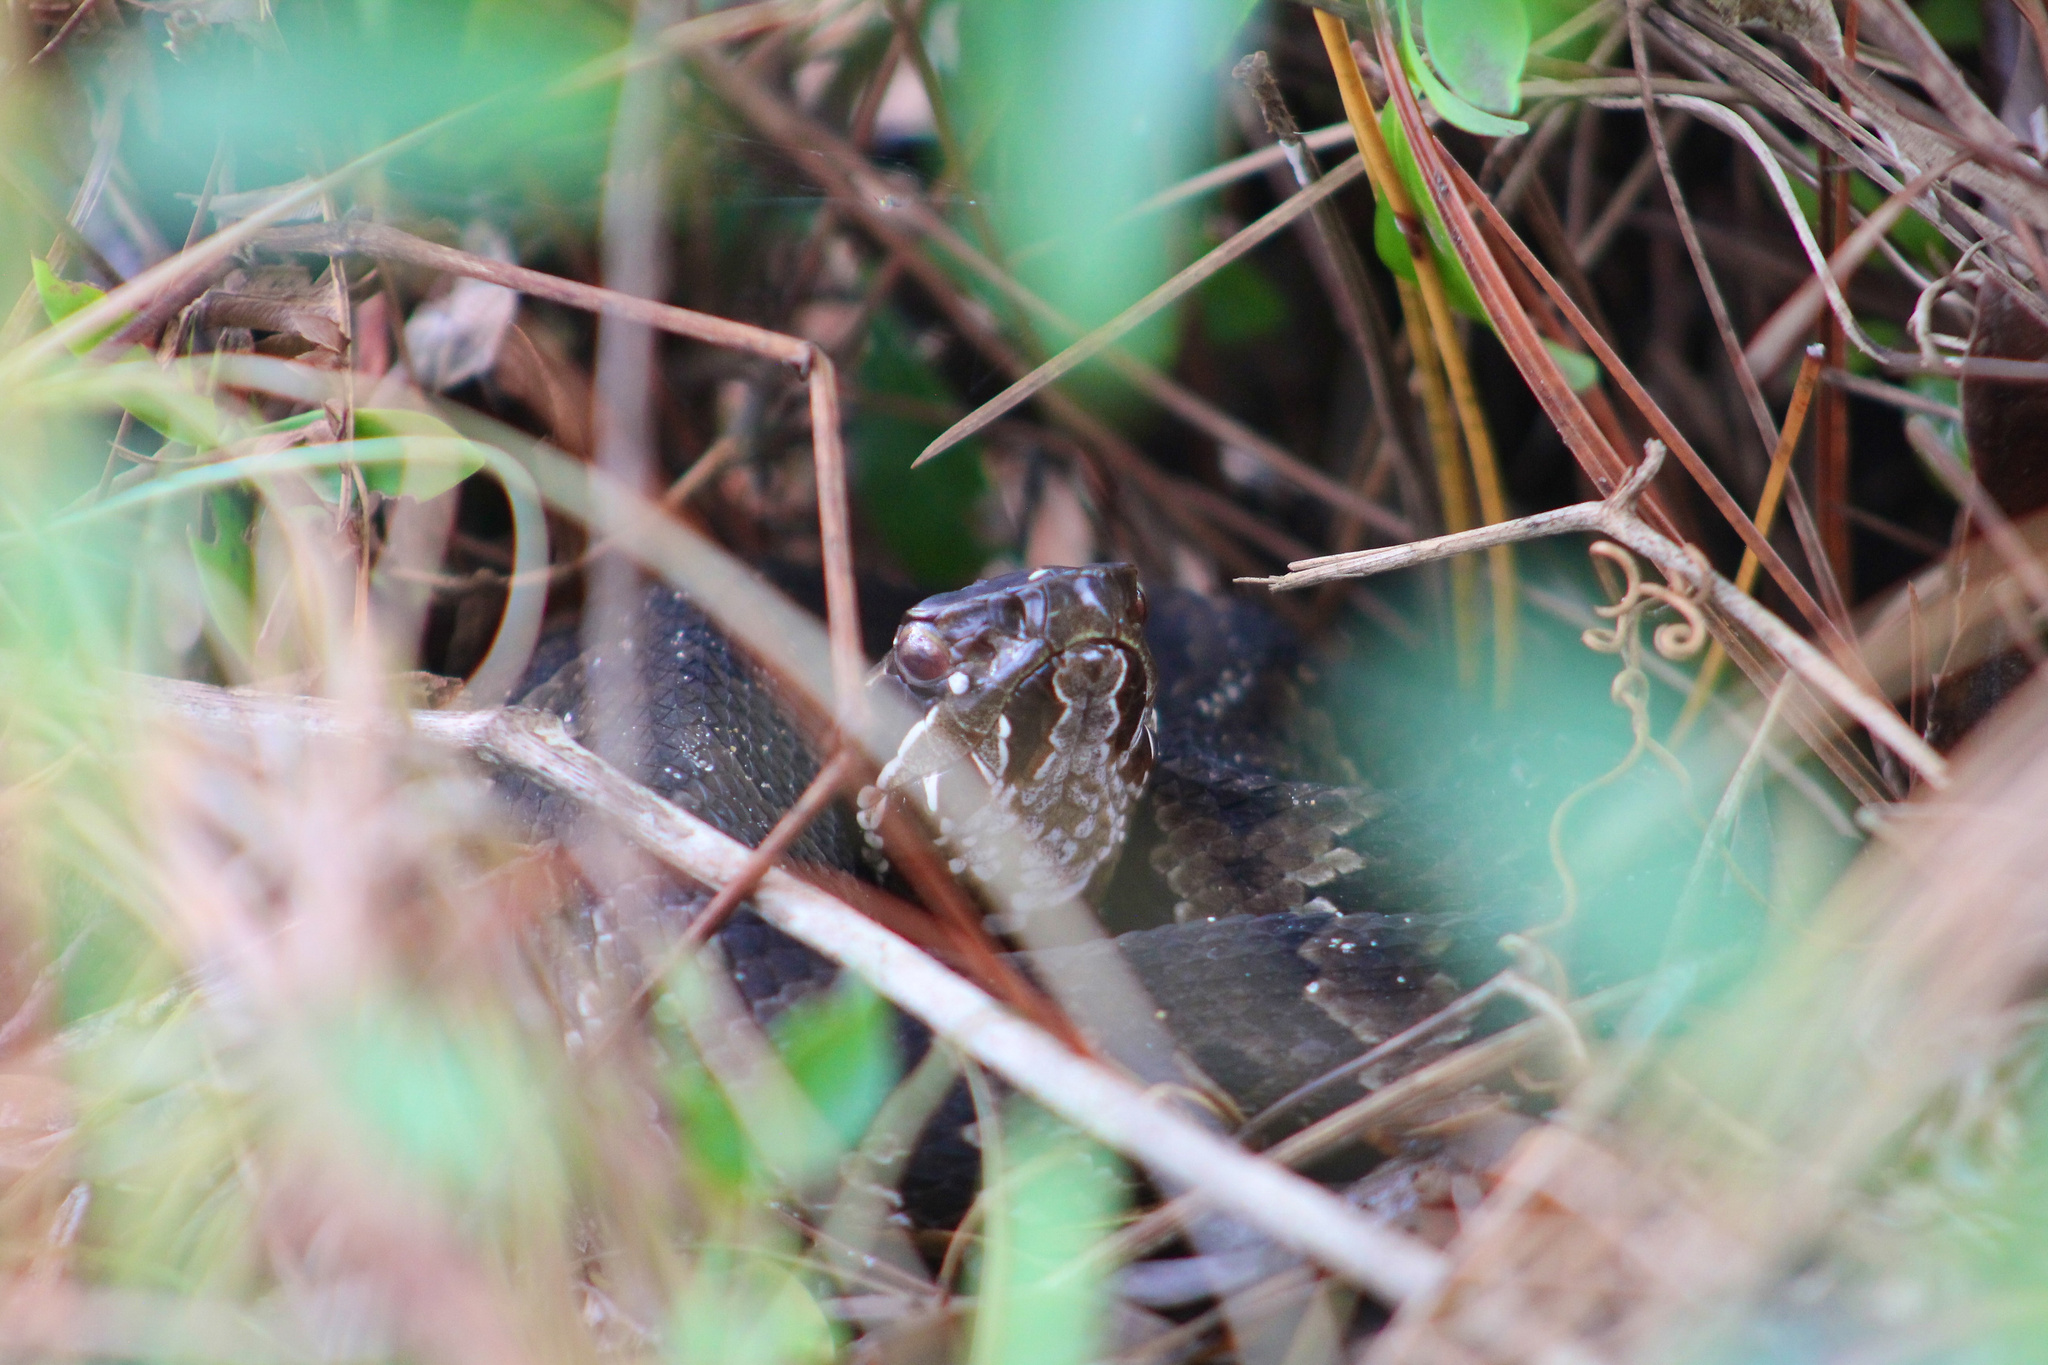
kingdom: Animalia
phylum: Chordata
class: Squamata
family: Viperidae
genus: Agkistrodon
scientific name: Agkistrodon
